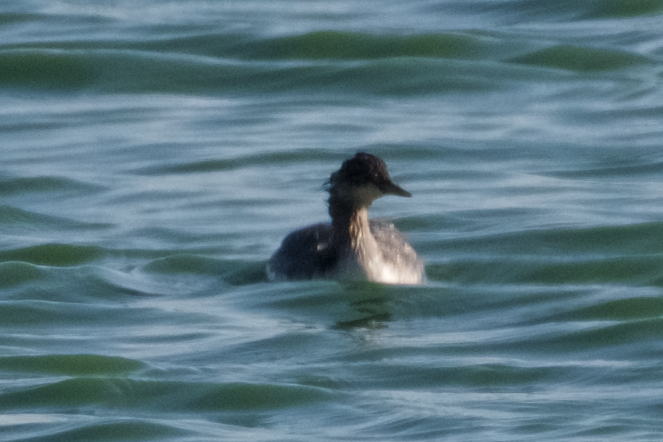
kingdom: Animalia
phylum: Chordata
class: Aves
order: Podicipediformes
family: Podicipedidae
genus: Podiceps
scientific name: Podiceps nigricollis
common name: Black-necked grebe
